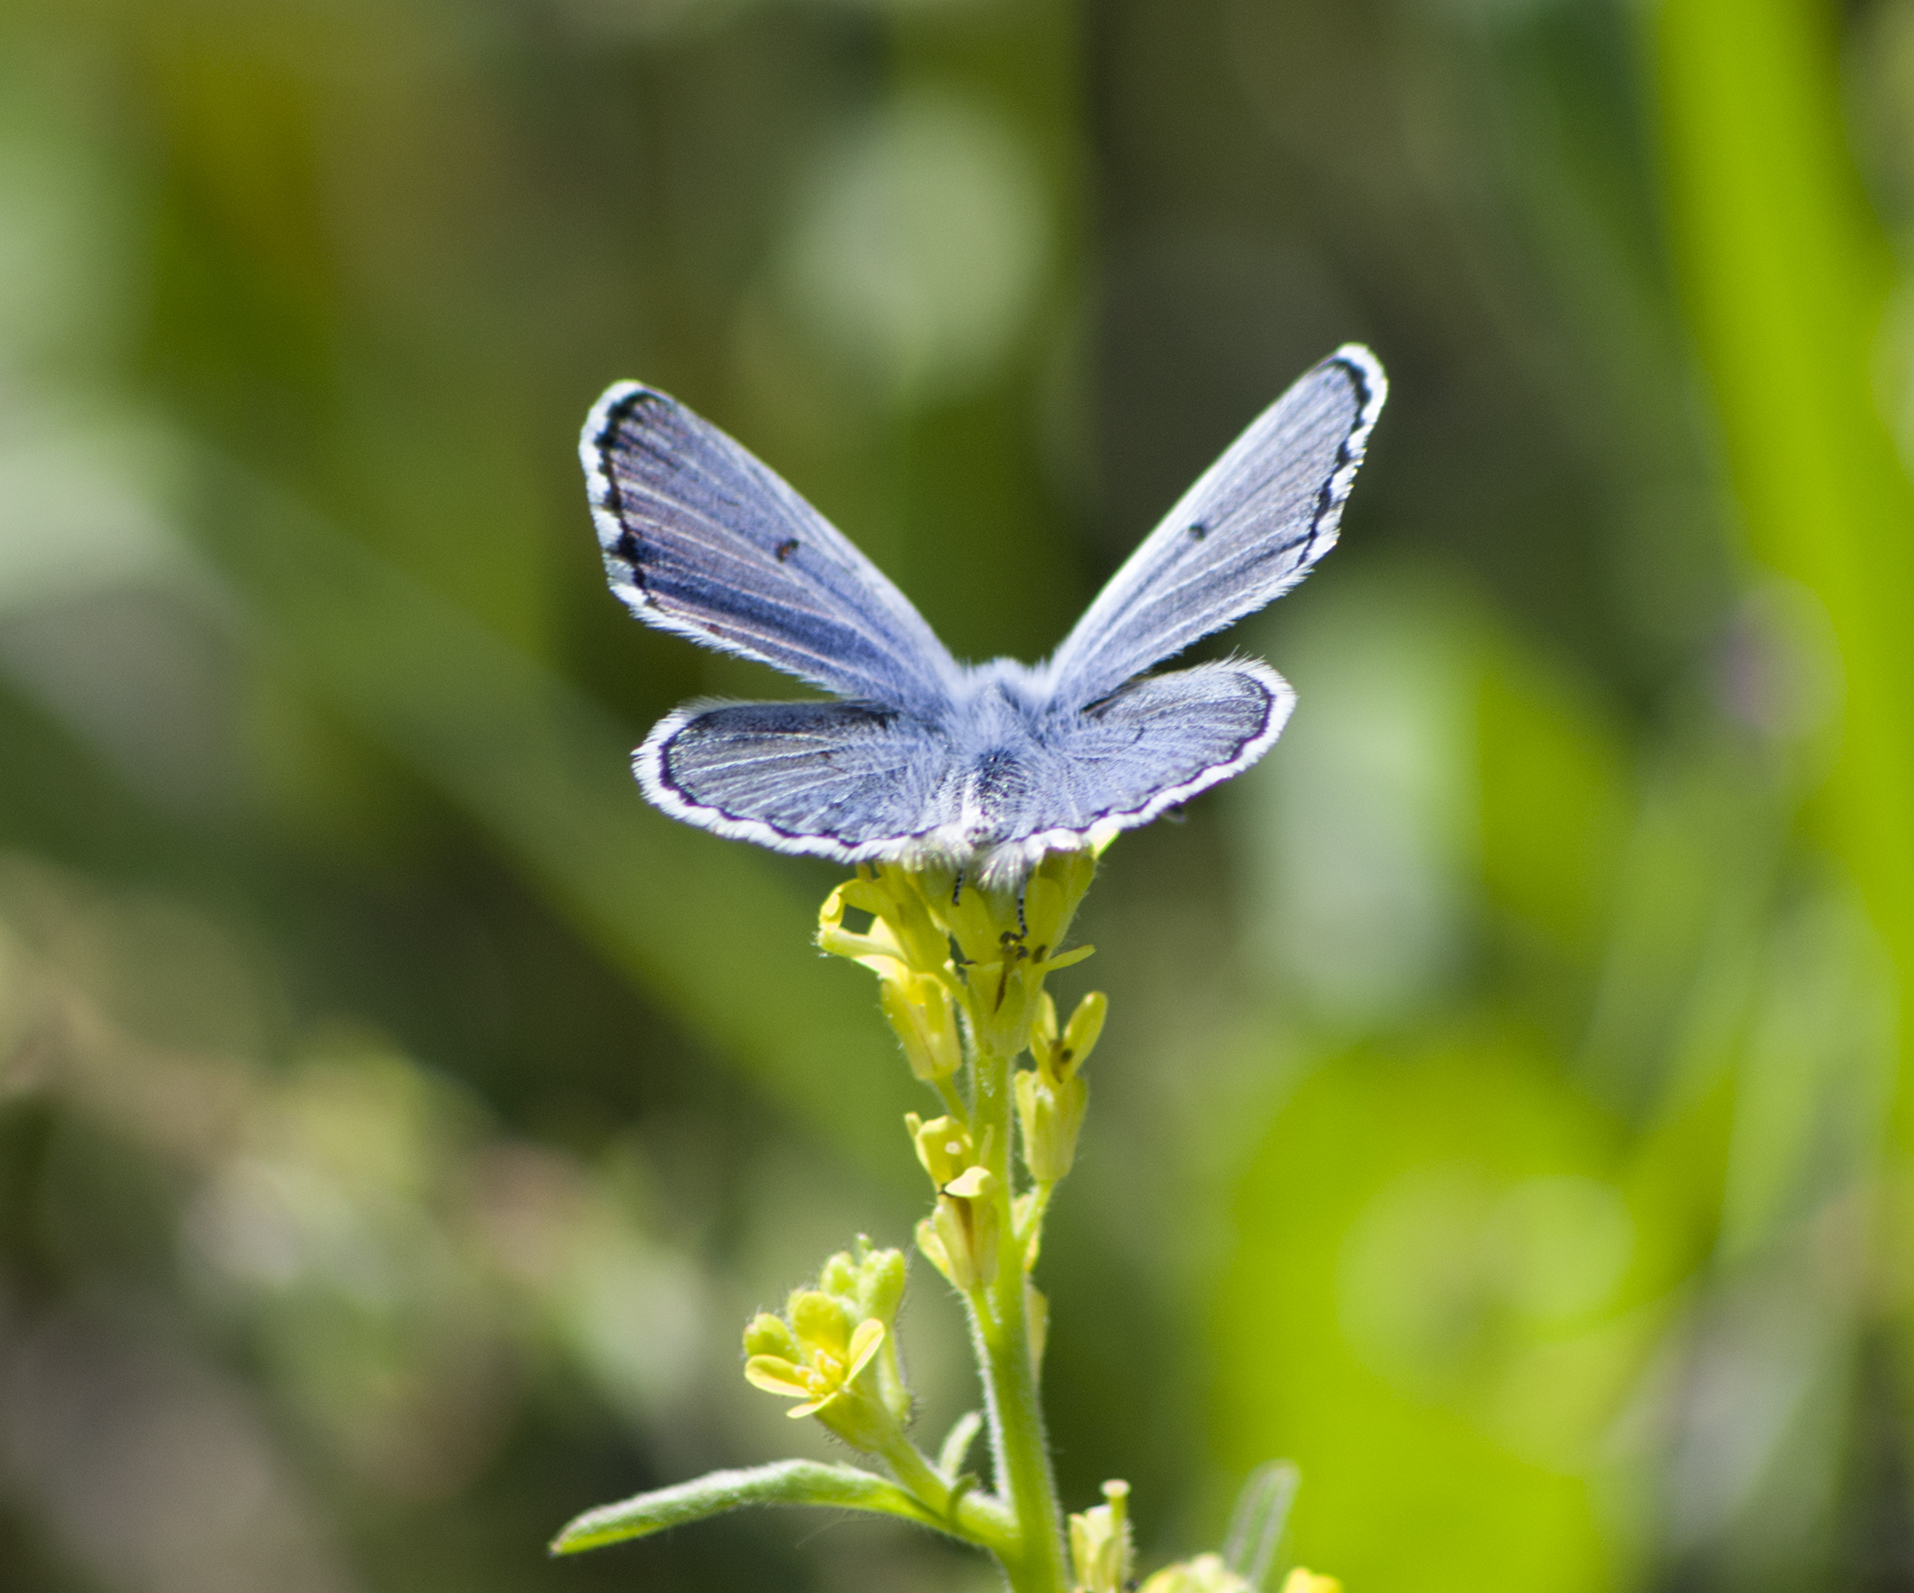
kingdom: Animalia
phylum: Arthropoda
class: Insecta
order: Lepidoptera
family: Lycaenidae
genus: Pseudophilotes
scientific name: Pseudophilotes baton
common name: Baton blue
